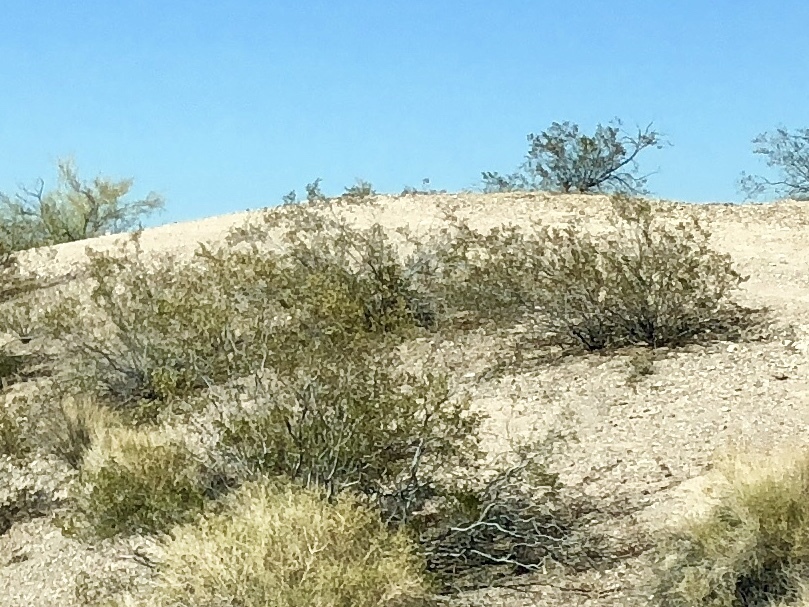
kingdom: Plantae
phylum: Tracheophyta
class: Magnoliopsida
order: Zygophyllales
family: Zygophyllaceae
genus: Larrea
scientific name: Larrea tridentata
